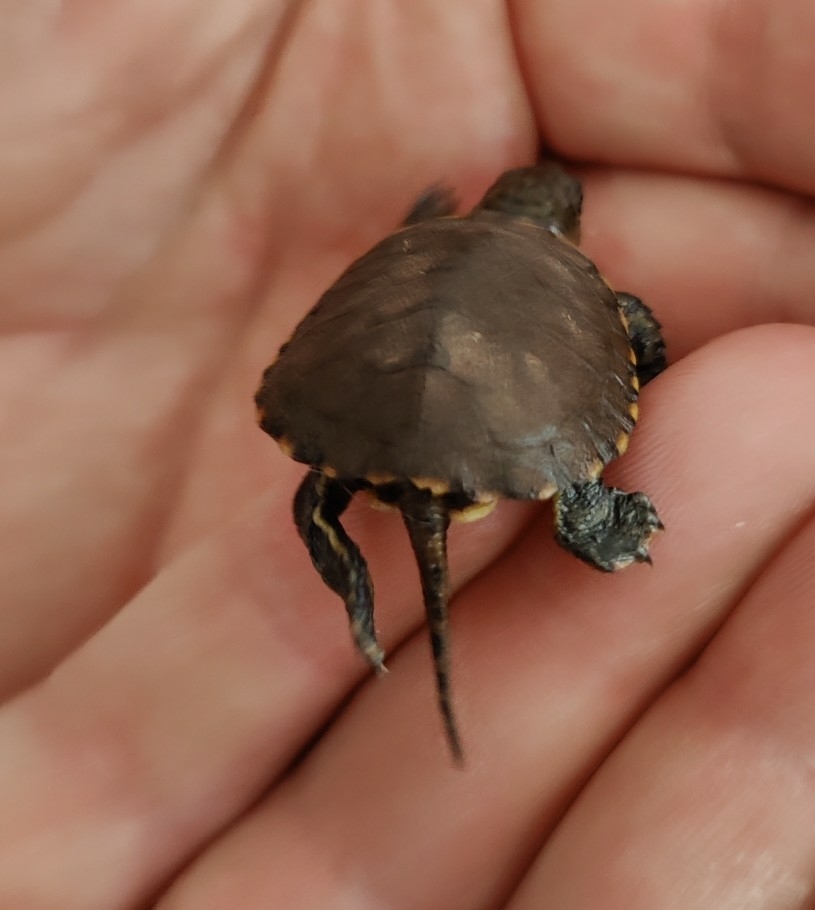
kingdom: Animalia
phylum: Chordata
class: Testudines
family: Emydidae
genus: Actinemys
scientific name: Actinemys pallida
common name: Southern pacific pond turtle
